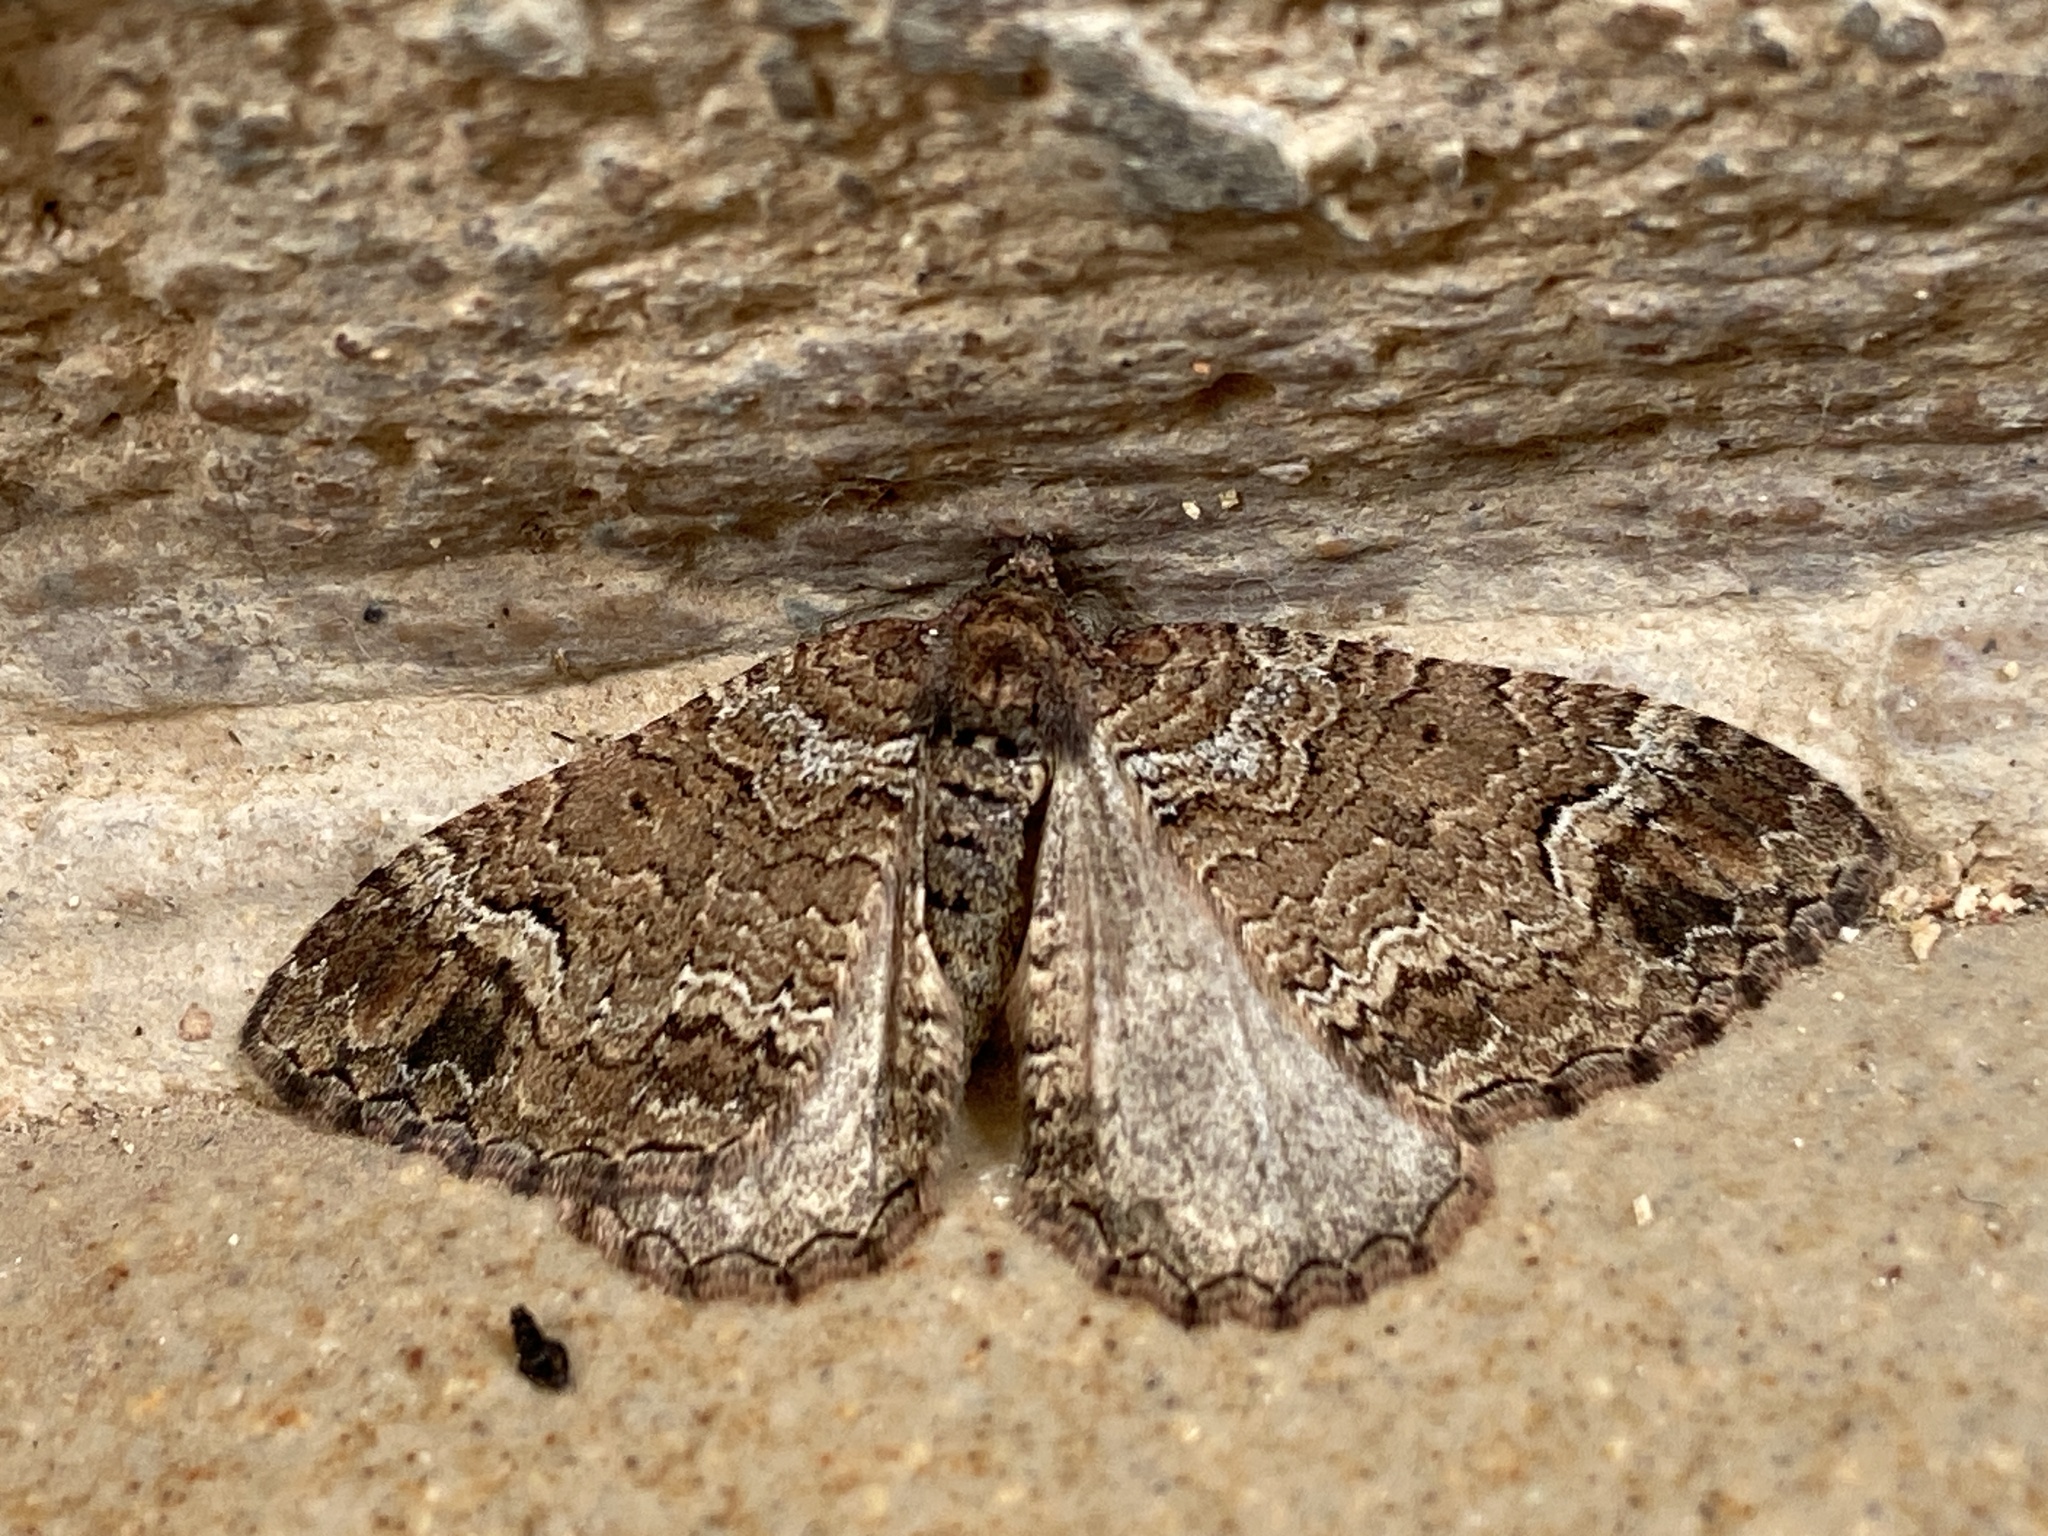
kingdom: Animalia
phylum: Arthropoda
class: Insecta
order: Lepidoptera
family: Geometridae
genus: Catarhoe
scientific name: Catarhoe basochesiata
